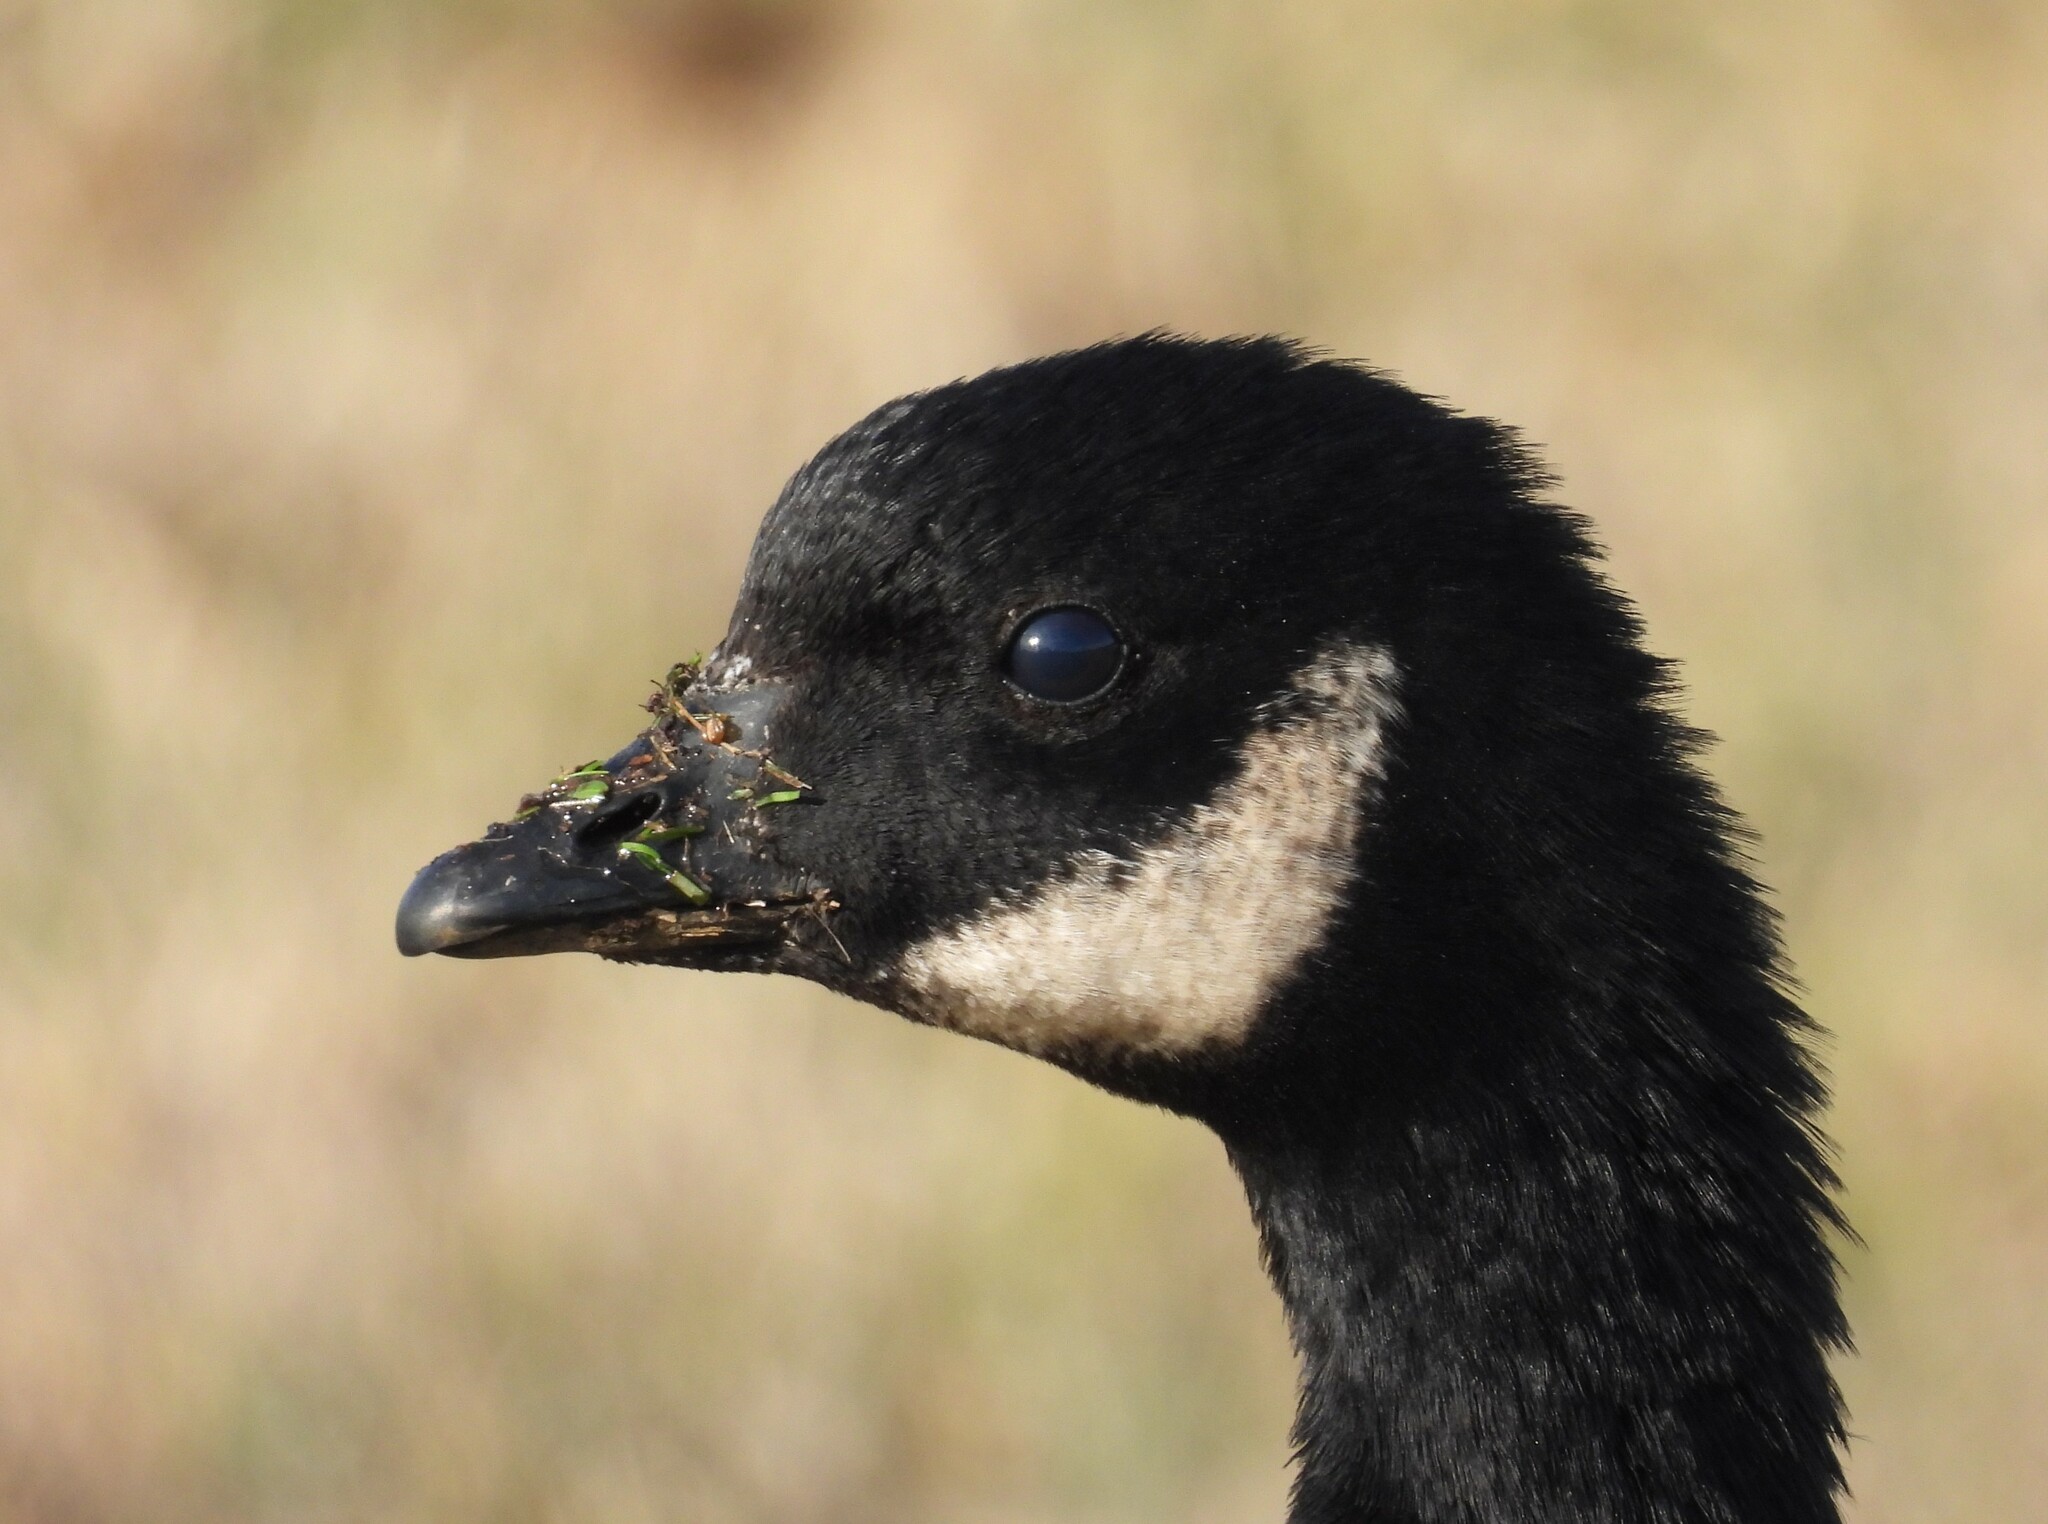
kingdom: Animalia
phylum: Chordata
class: Aves
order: Anseriformes
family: Anatidae
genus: Branta
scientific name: Branta hutchinsii
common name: Cackling goose
